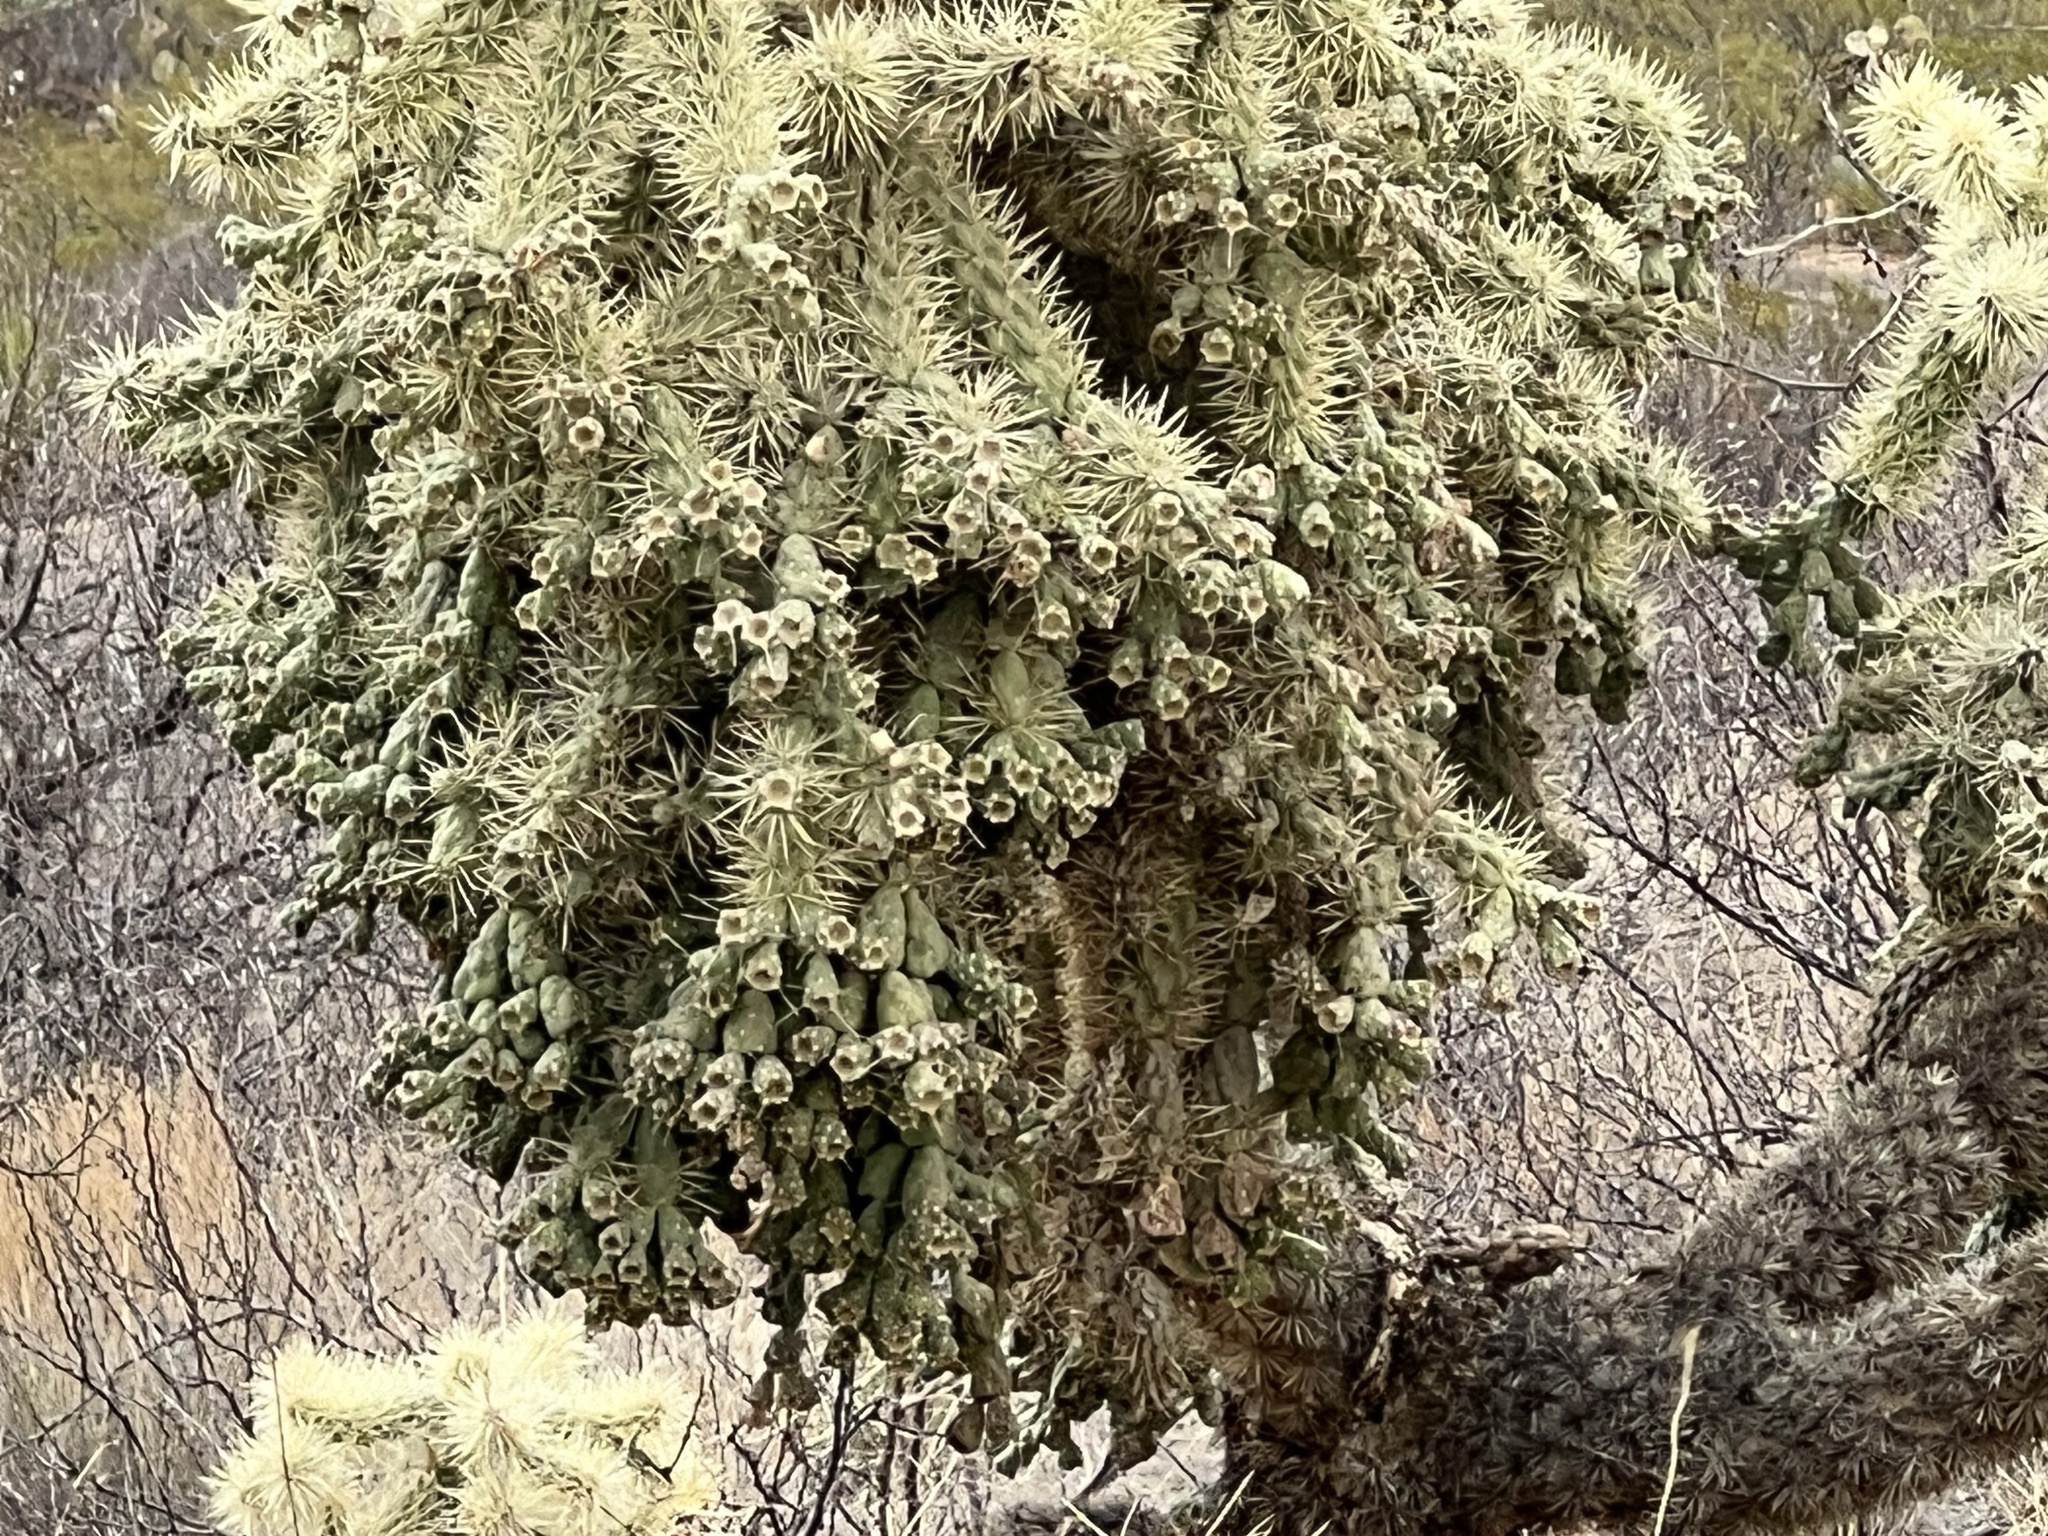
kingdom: Plantae
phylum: Tracheophyta
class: Magnoliopsida
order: Caryophyllales
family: Cactaceae
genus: Cylindropuntia
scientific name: Cylindropuntia fulgida
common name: Jumping cholla
